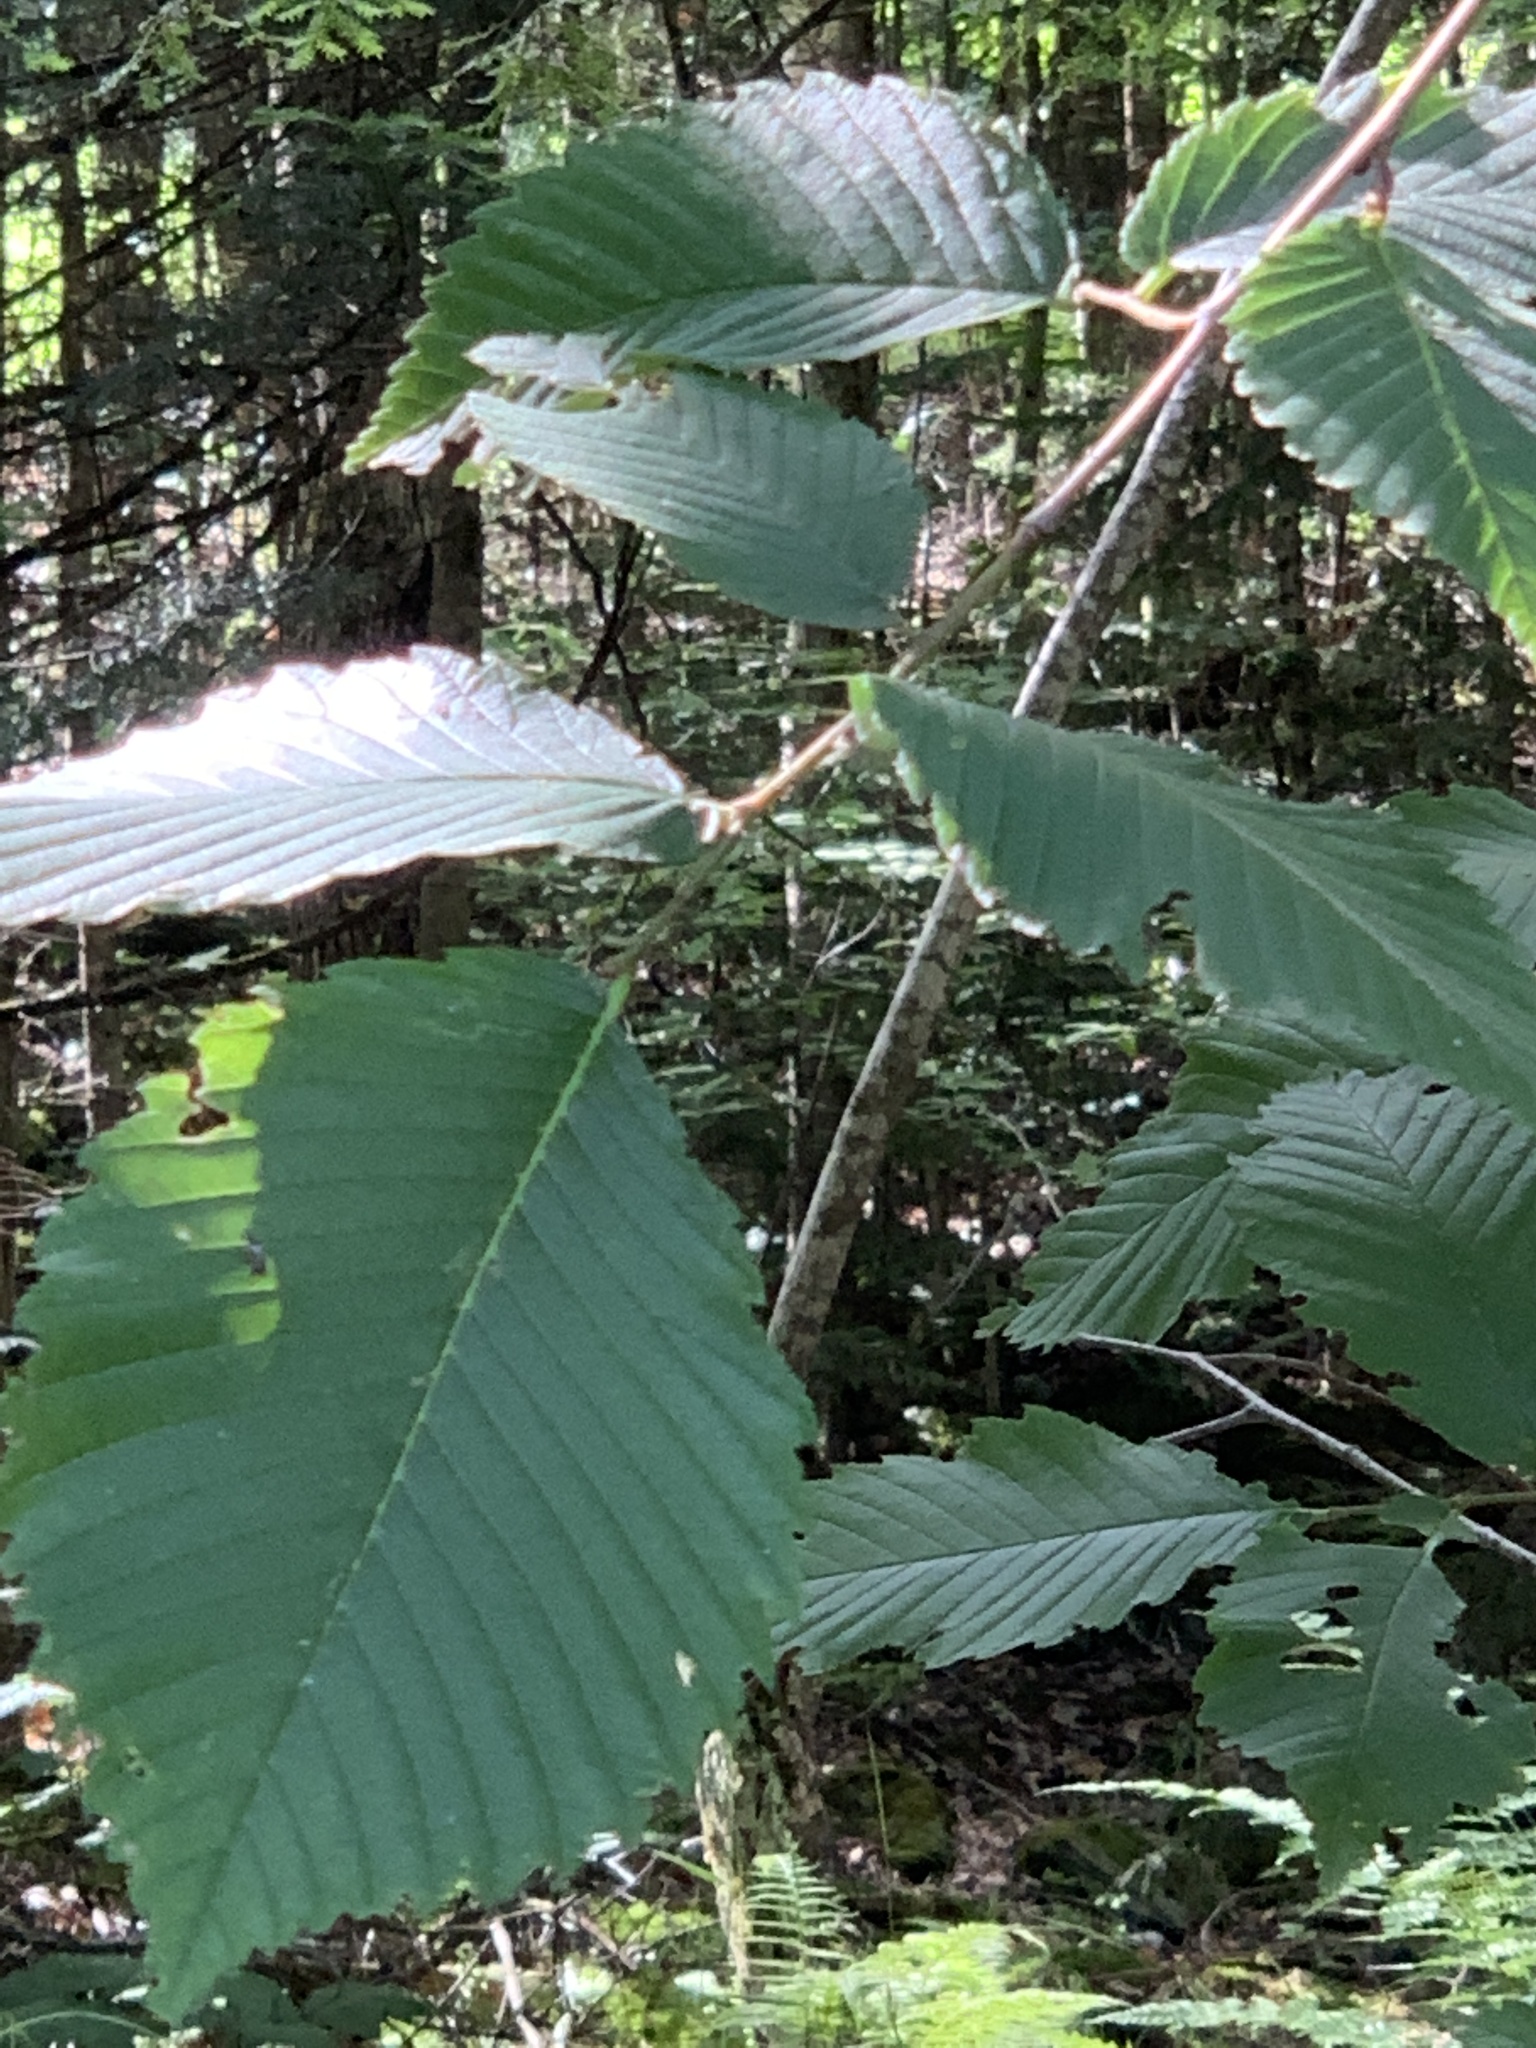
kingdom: Plantae
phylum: Tracheophyta
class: Magnoliopsida
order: Rosales
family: Ulmaceae
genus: Ulmus
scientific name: Ulmus americana
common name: American elm
